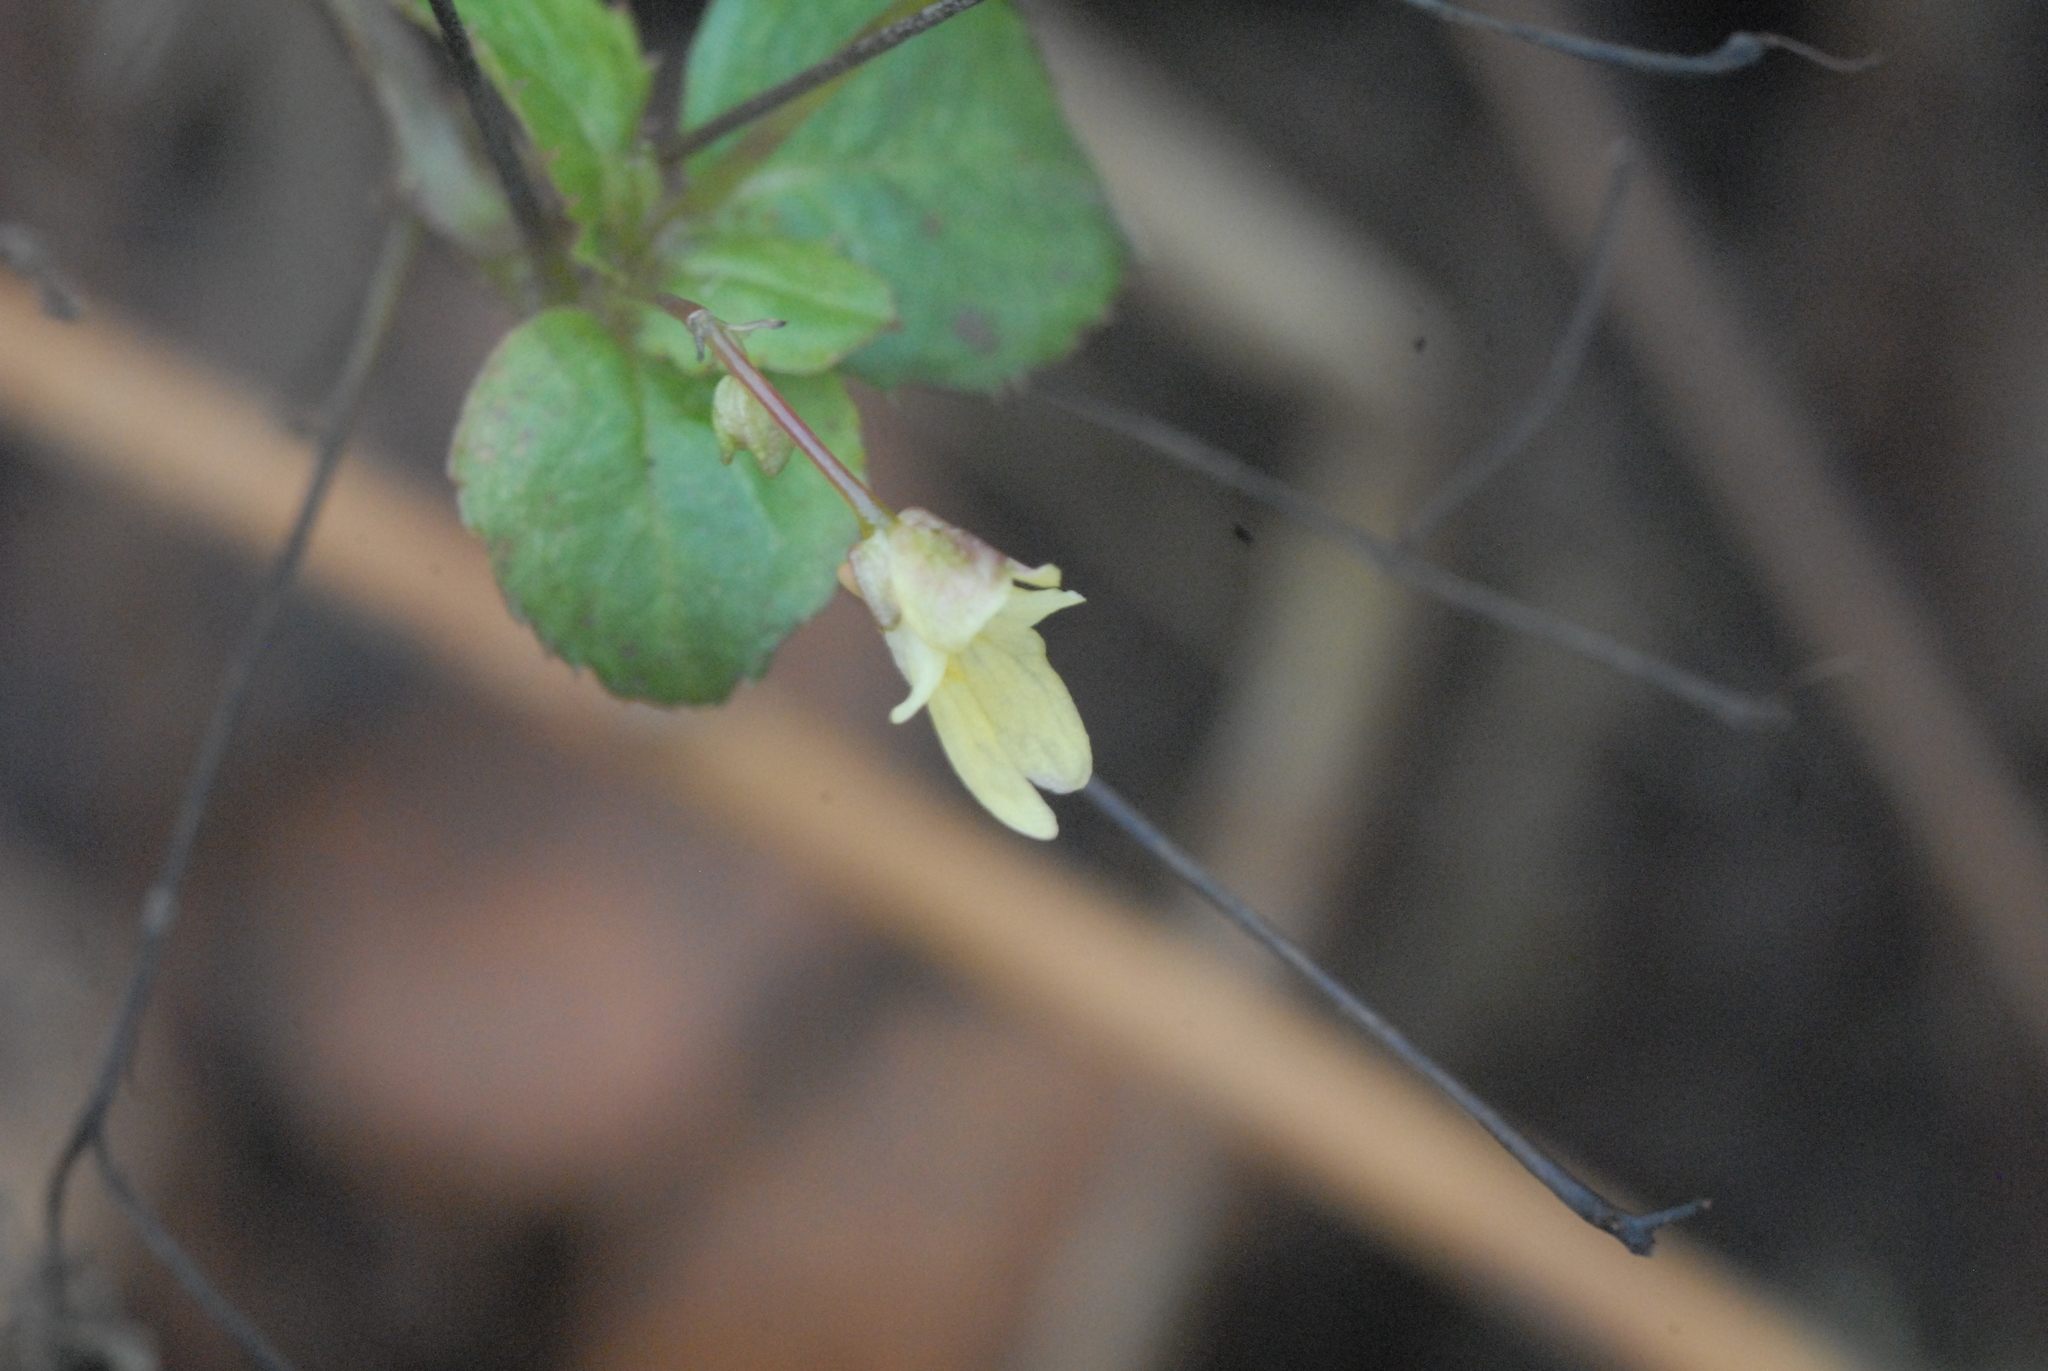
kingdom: Plantae
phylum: Tracheophyta
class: Magnoliopsida
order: Ericales
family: Balsaminaceae
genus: Impatiens
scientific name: Impatiens parviflora
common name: Small balsam
